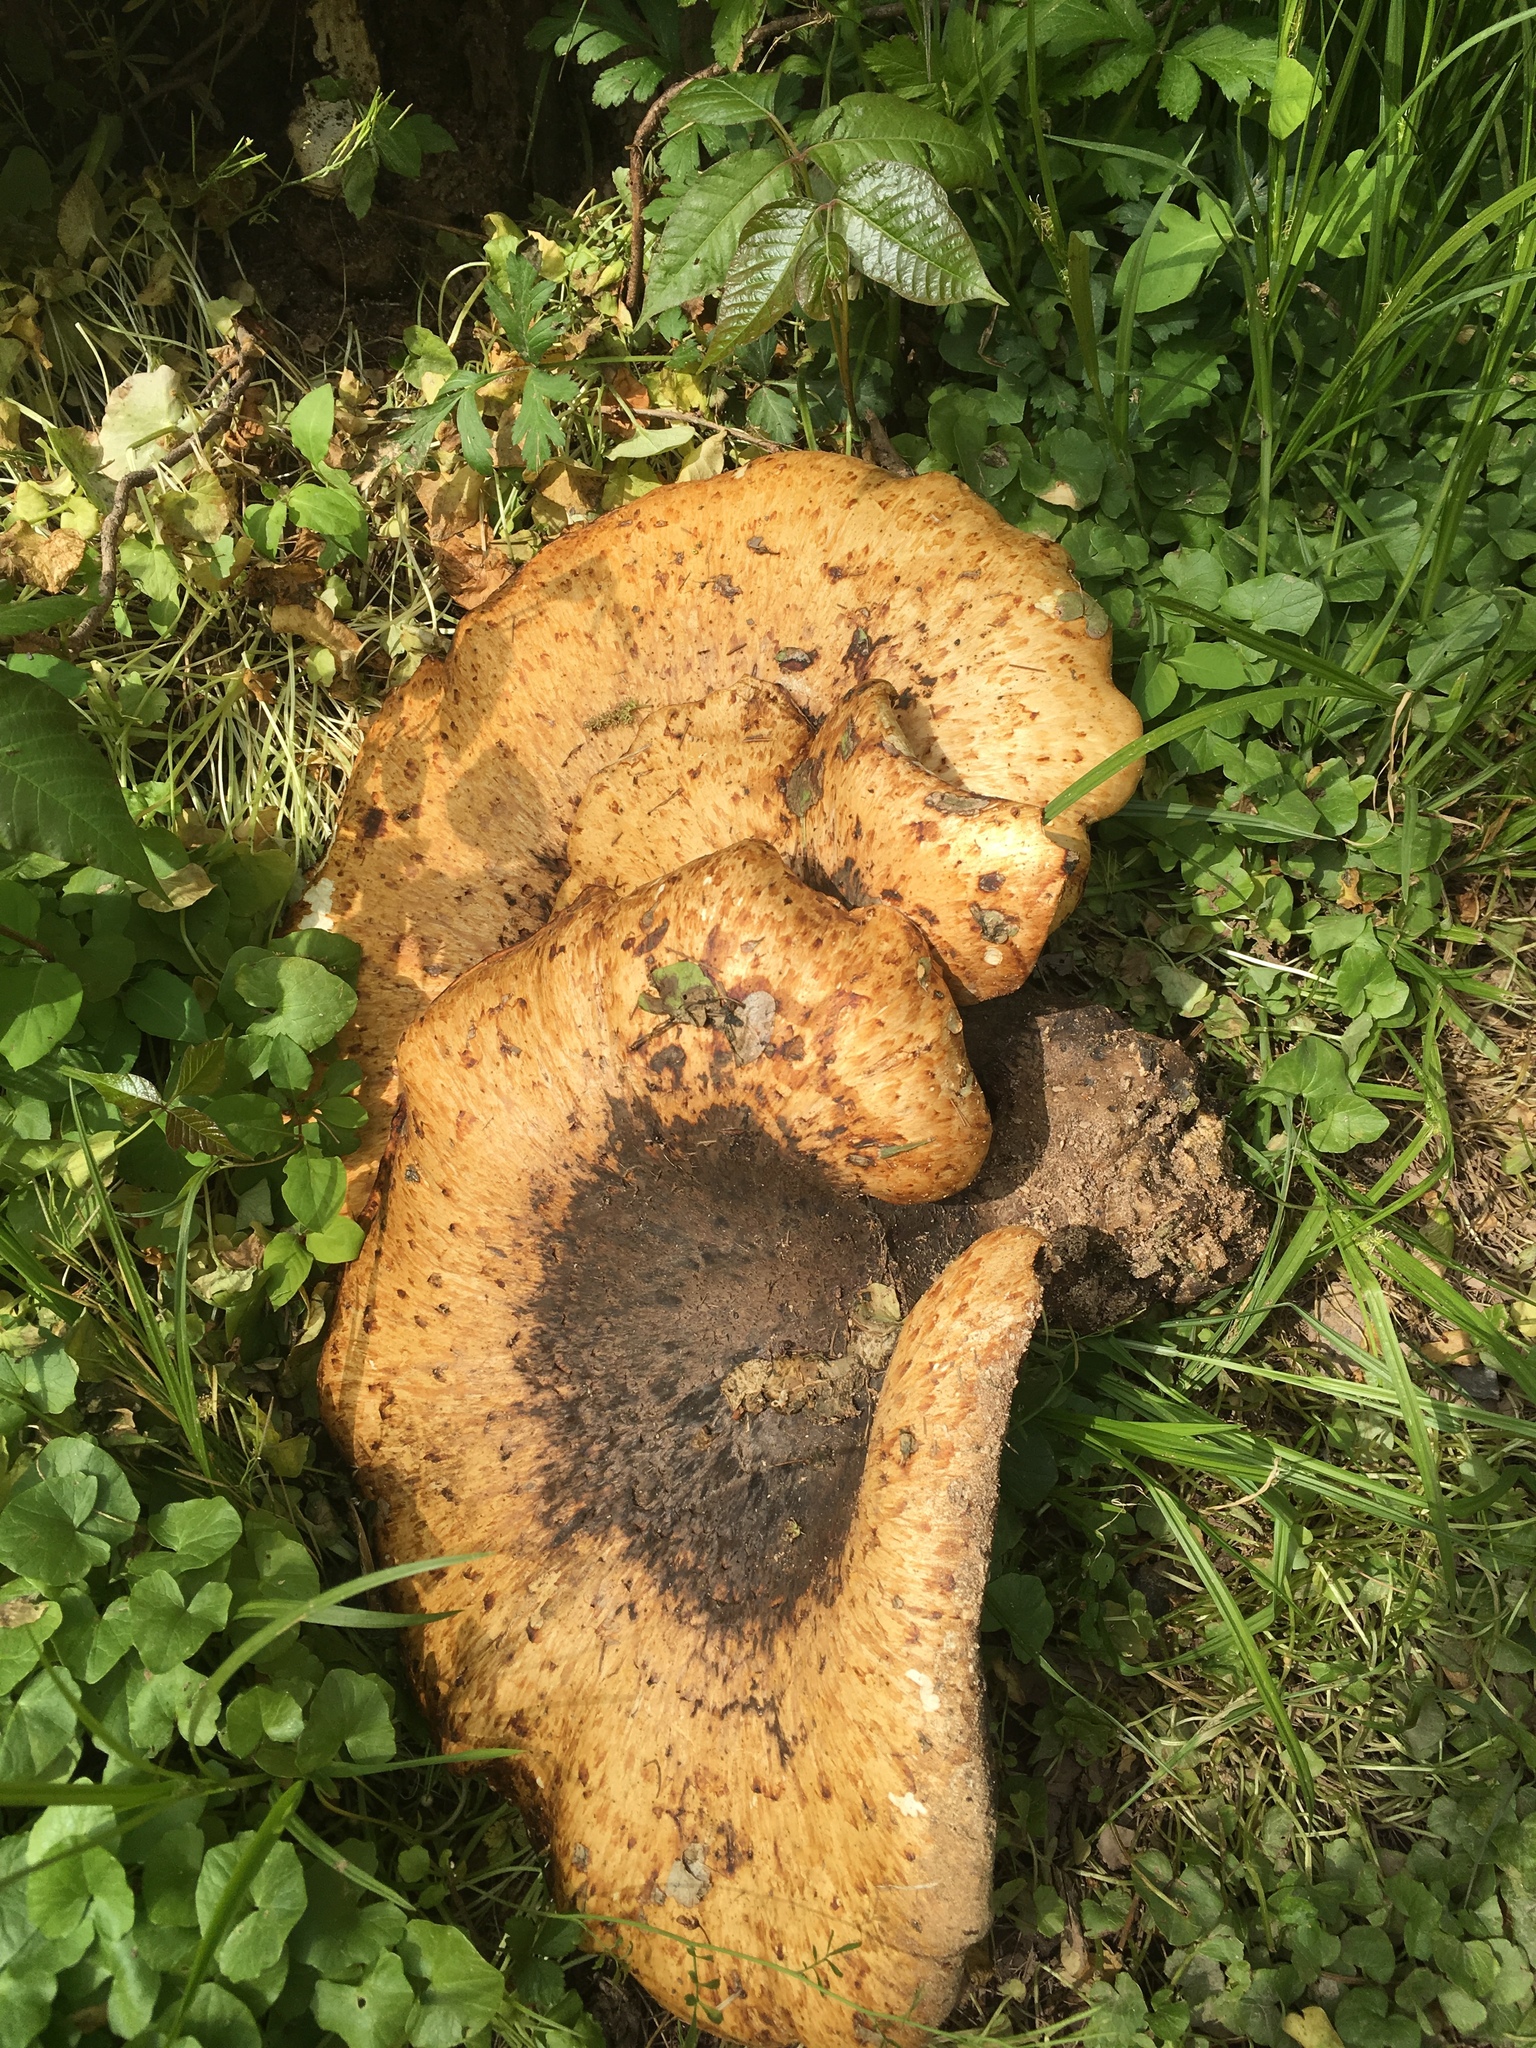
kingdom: Fungi
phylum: Basidiomycota
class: Agaricomycetes
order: Polyporales
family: Polyporaceae
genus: Cerioporus
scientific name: Cerioporus squamosus
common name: Dryad's saddle
